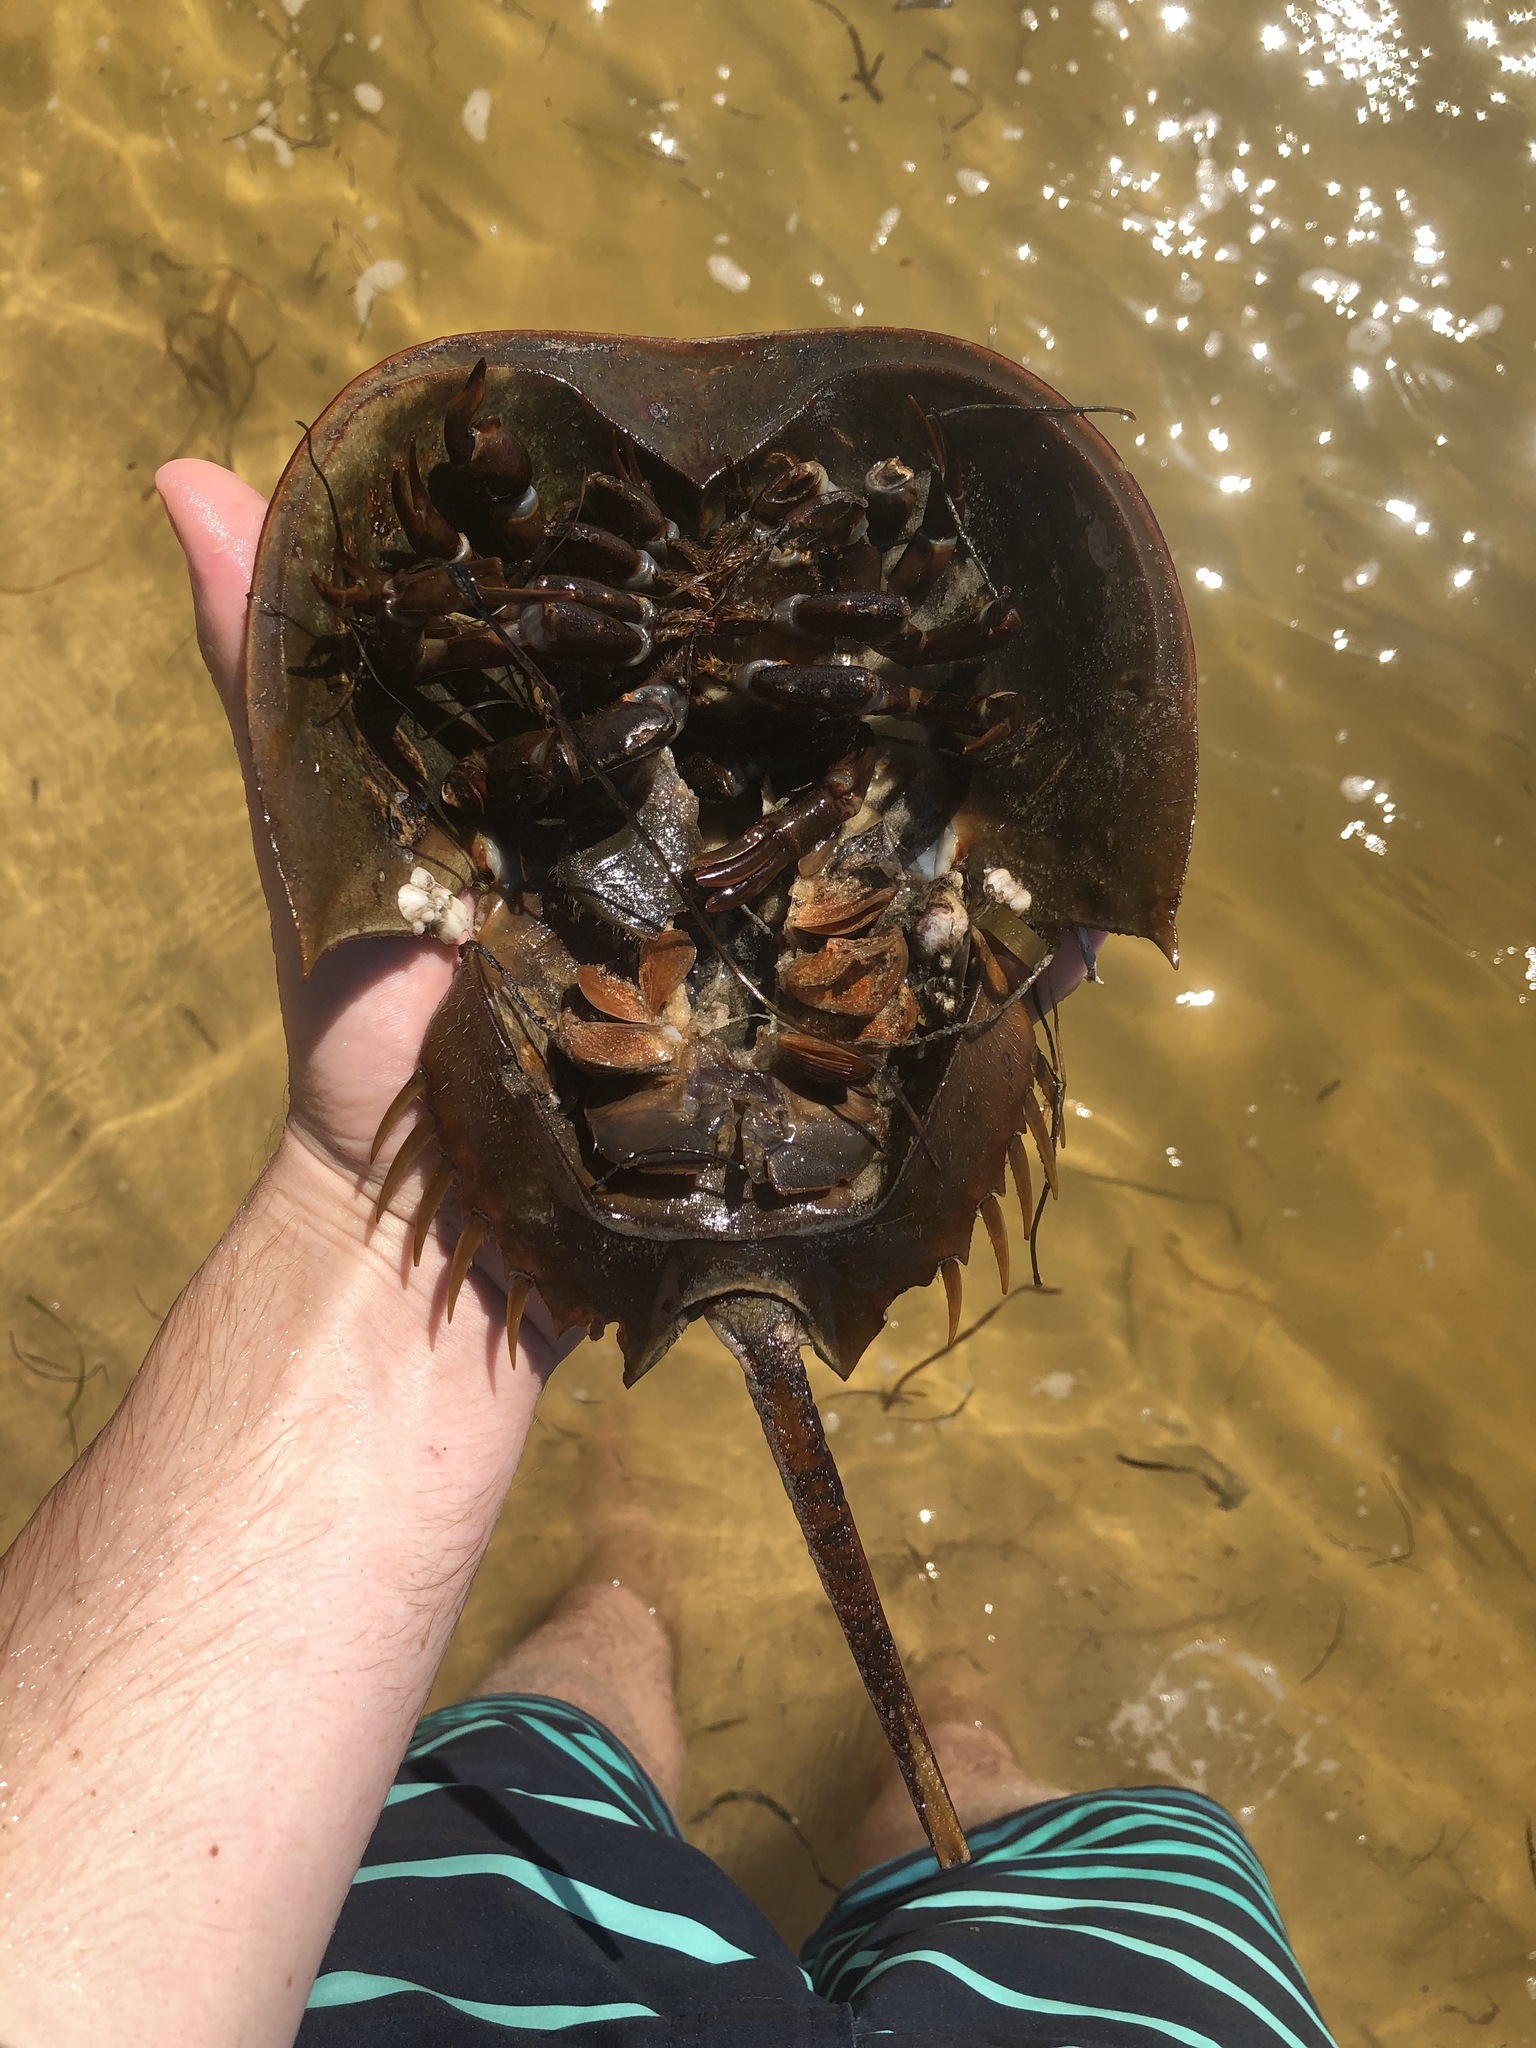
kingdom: Animalia
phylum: Arthropoda
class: Merostomata
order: Xiphosurida
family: Limulidae
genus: Limulus
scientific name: Limulus polyphemus
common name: Horseshoe crab
